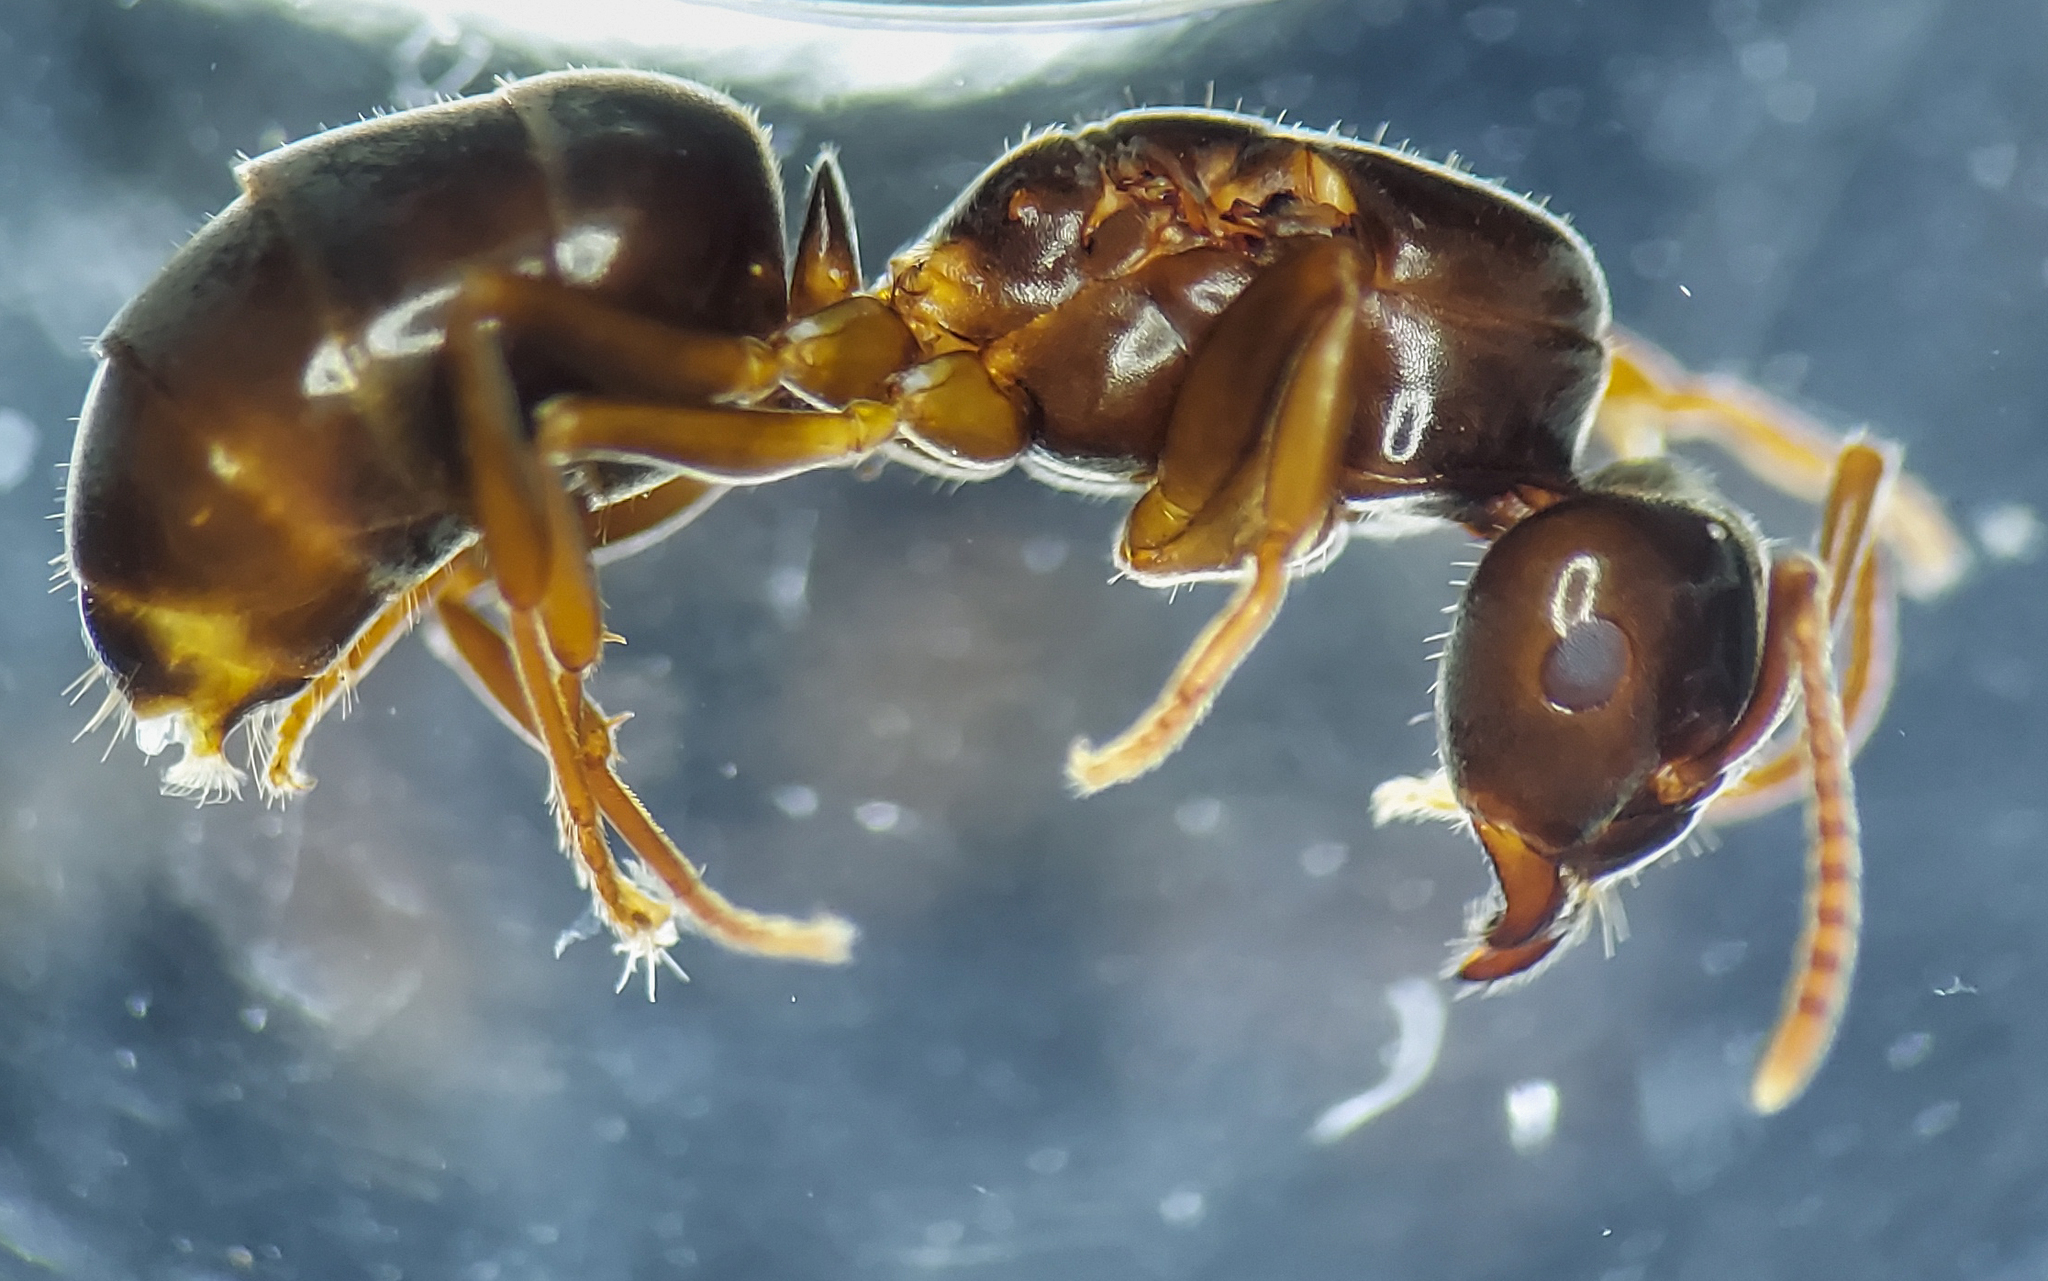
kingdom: Animalia
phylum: Arthropoda
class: Insecta
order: Hymenoptera
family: Formicidae
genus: Lasius
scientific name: Lasius aphidicola
